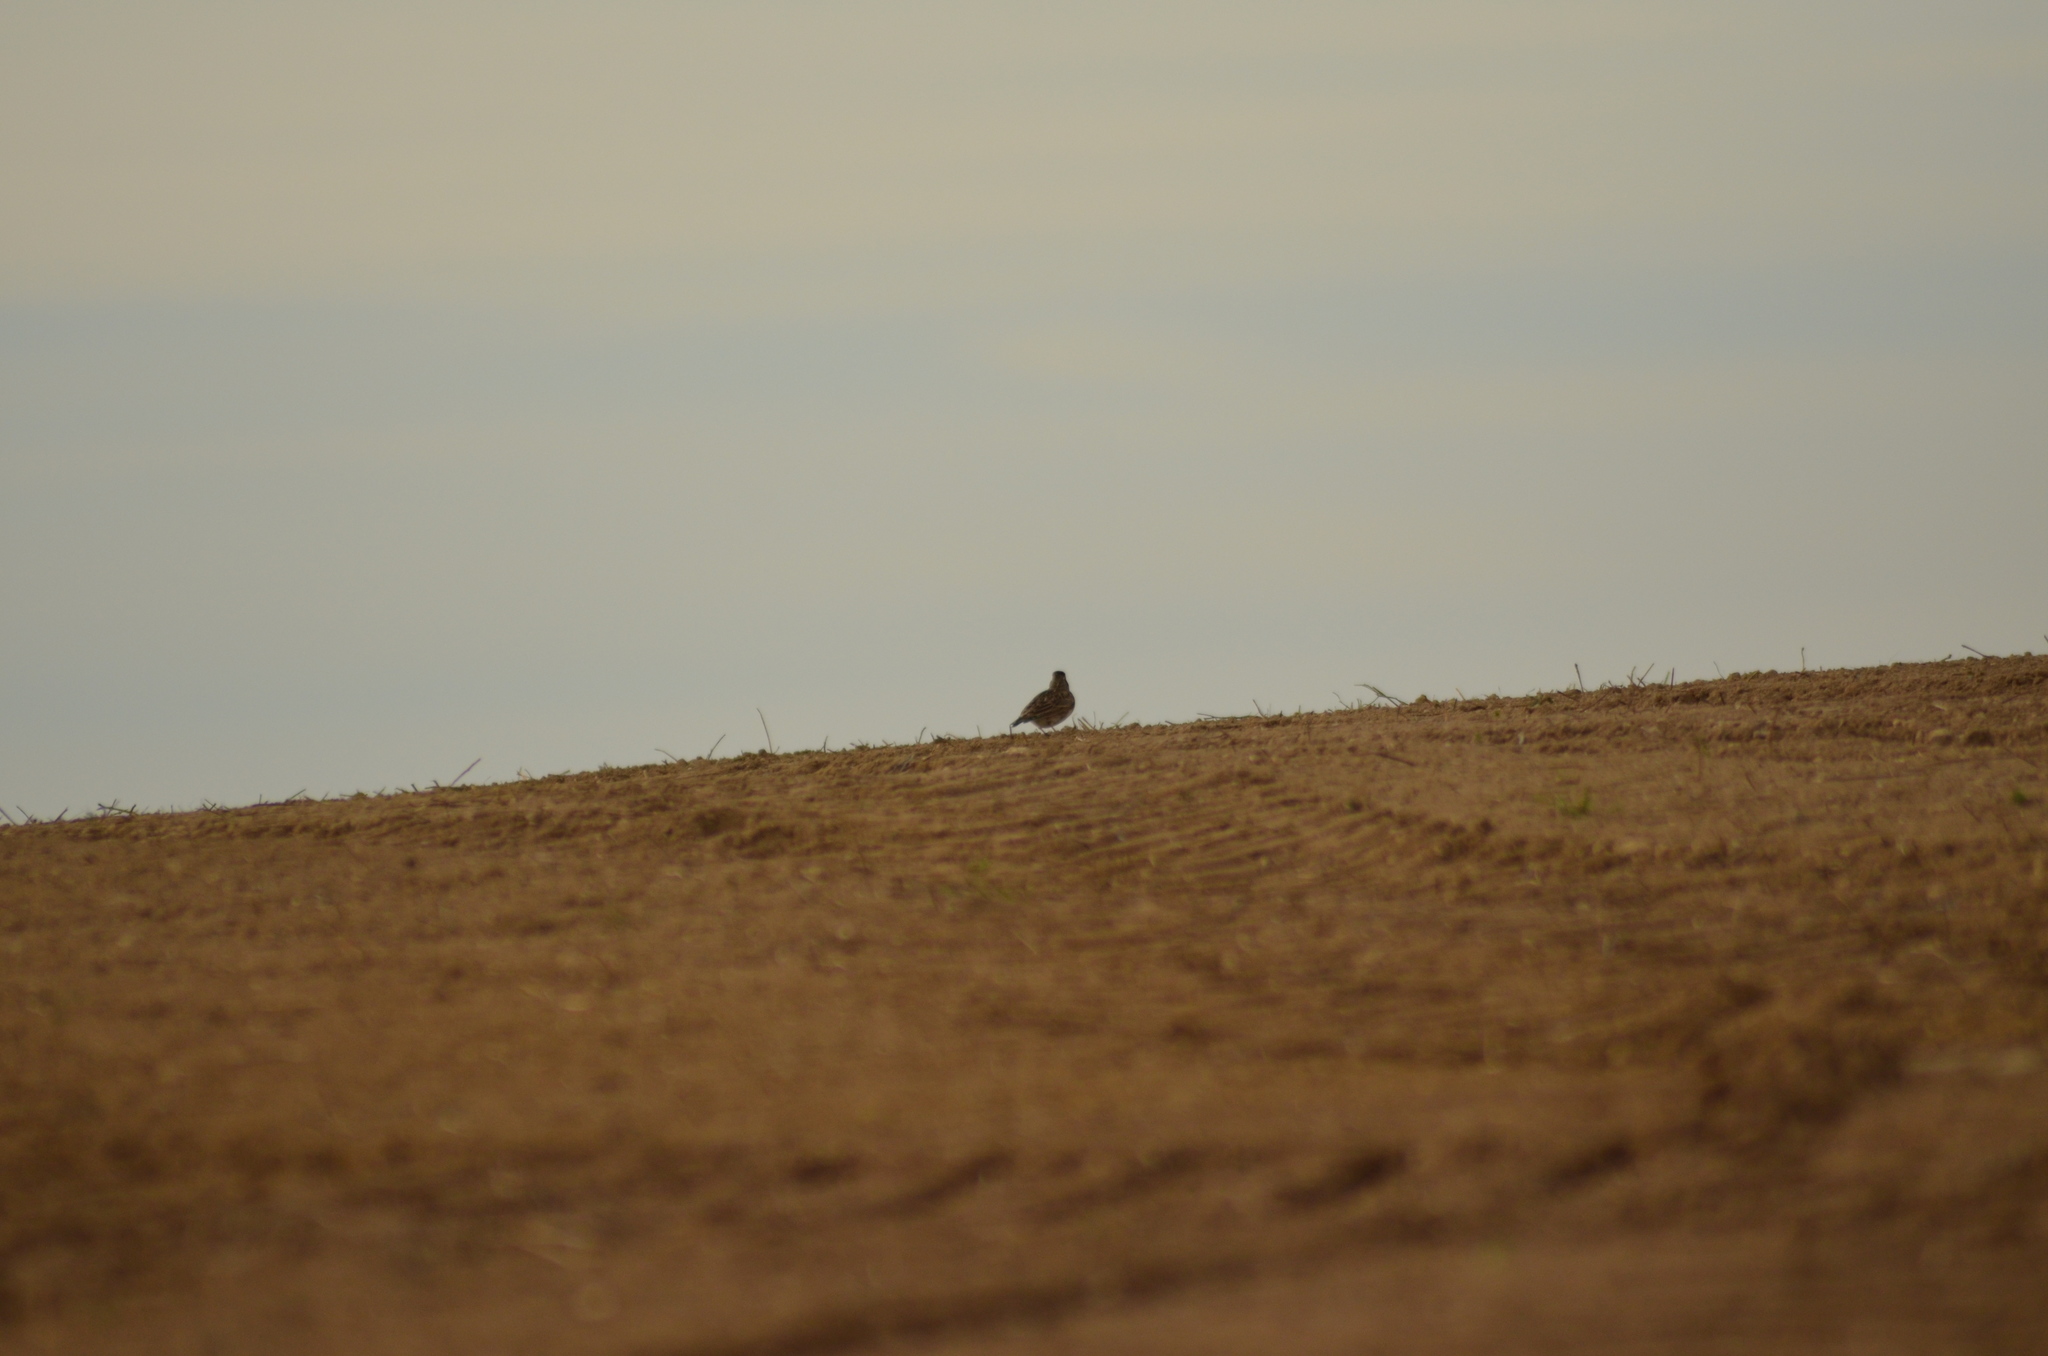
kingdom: Animalia
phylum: Chordata
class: Aves
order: Passeriformes
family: Alaudidae
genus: Galerida
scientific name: Galerida cristata
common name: Crested lark
